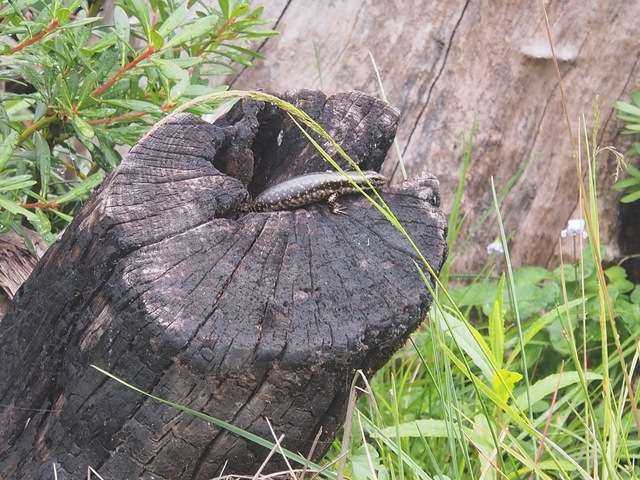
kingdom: Animalia
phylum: Chordata
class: Squamata
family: Scincidae
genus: Eulamprus
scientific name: Eulamprus tympanum
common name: Cool-temperate water-skink
